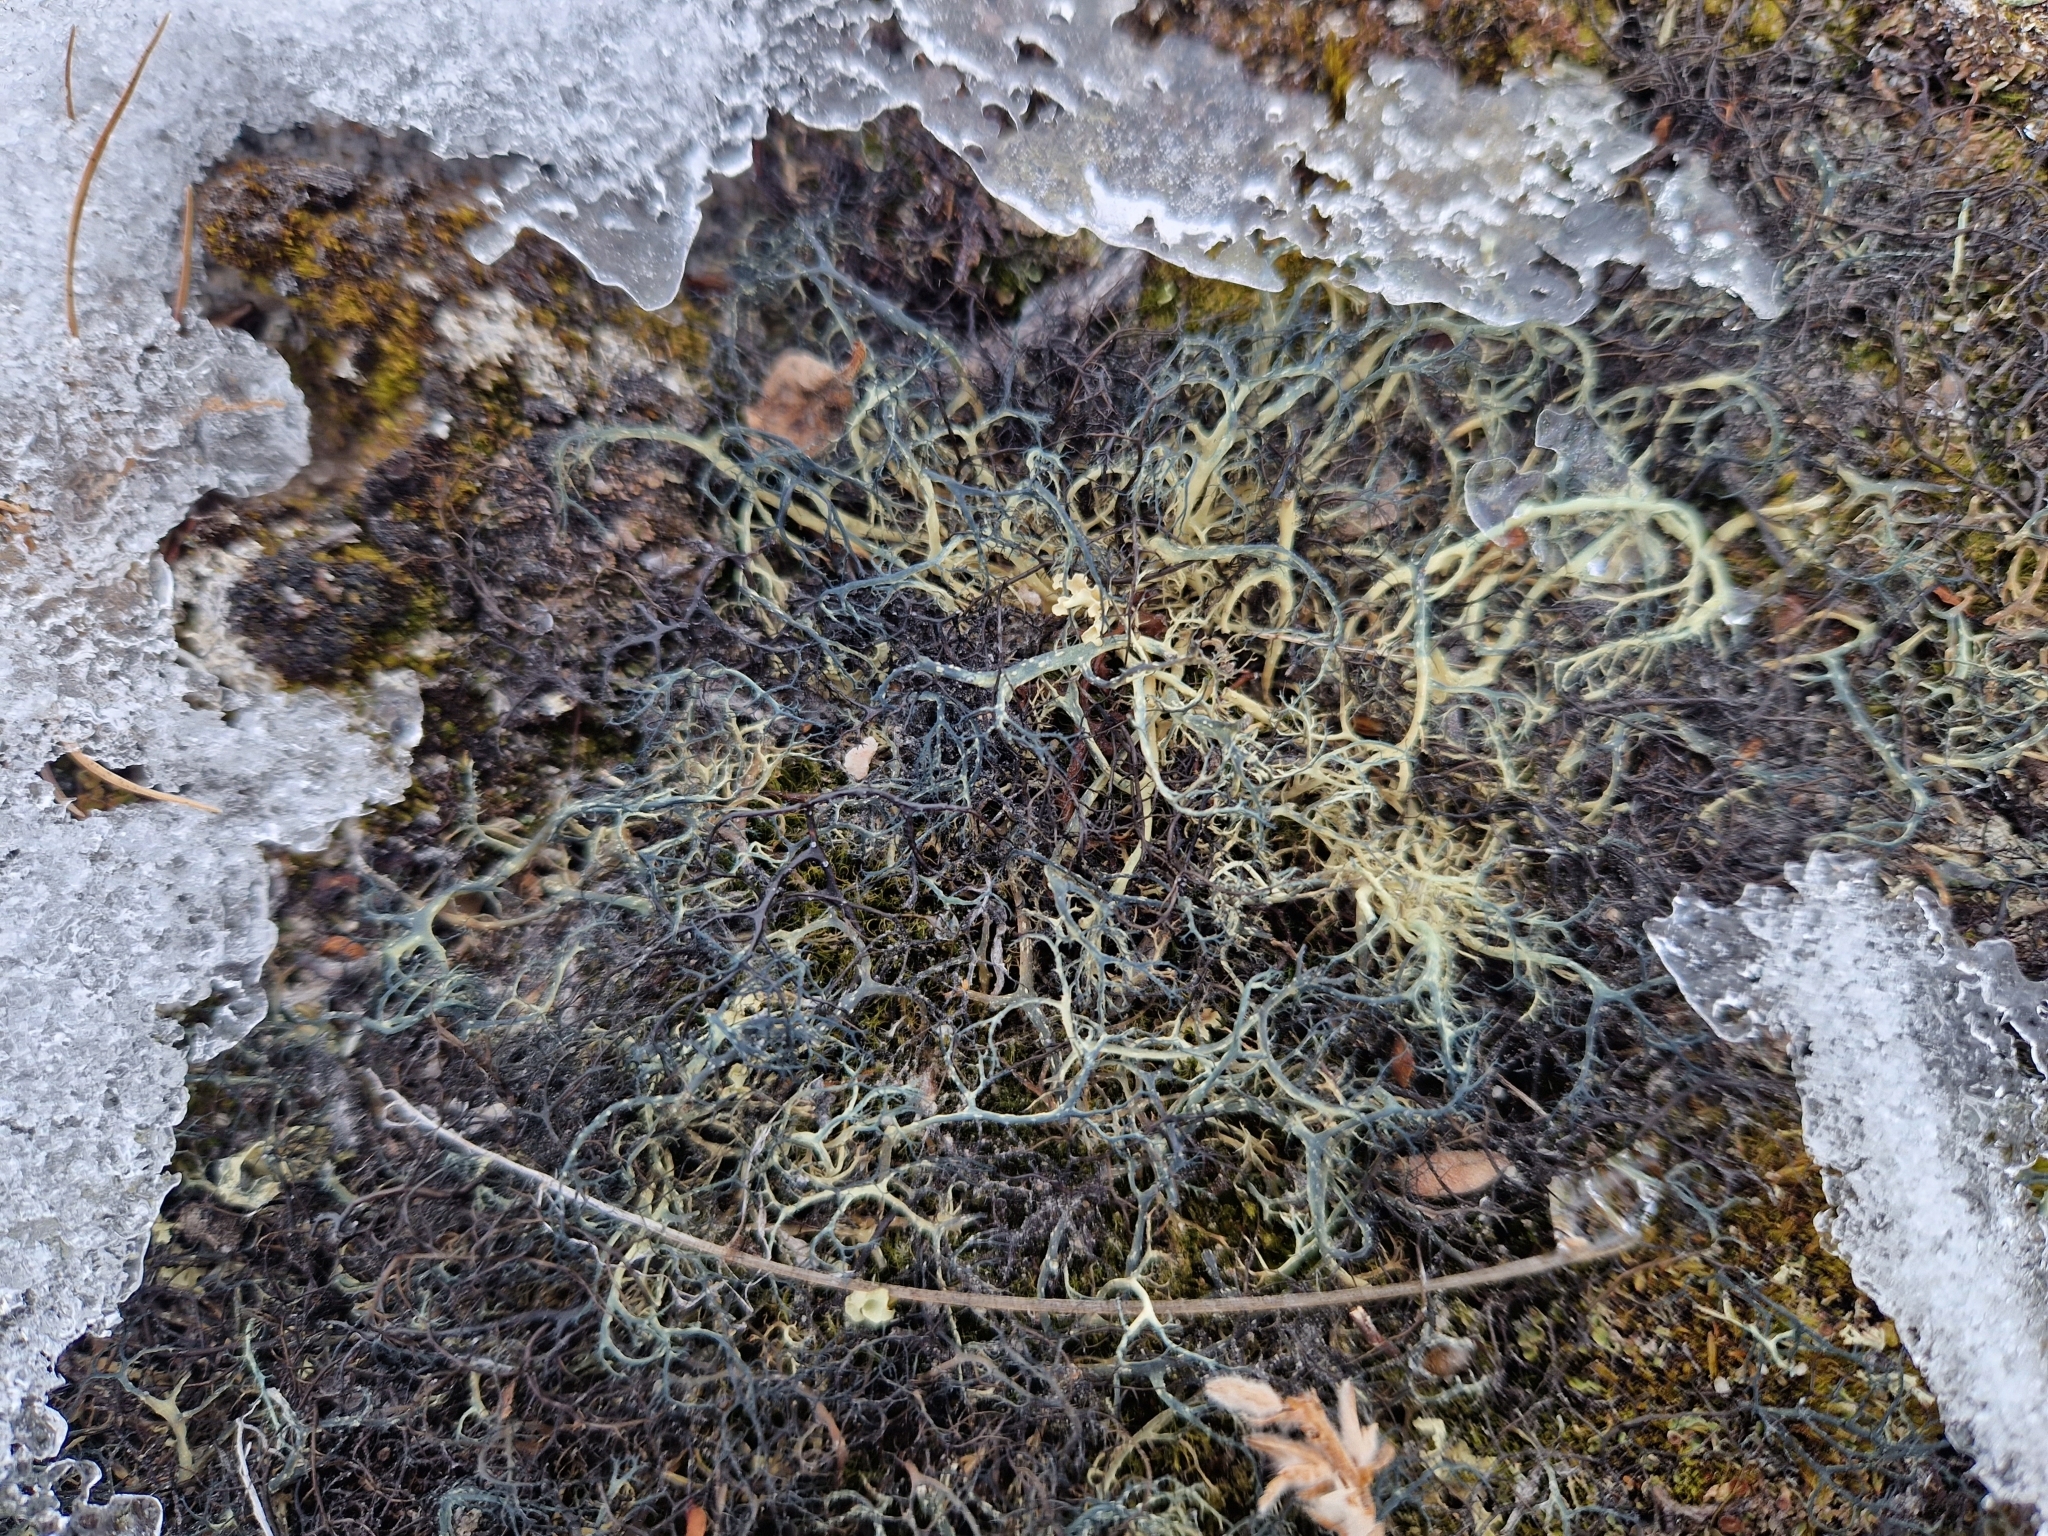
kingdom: Fungi
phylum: Ascomycota
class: Lecanoromycetes
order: Lecanorales
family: Parmeliaceae
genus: Alectoria
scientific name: Alectoria ochroleuca
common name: Alpine sulphur-tresses
